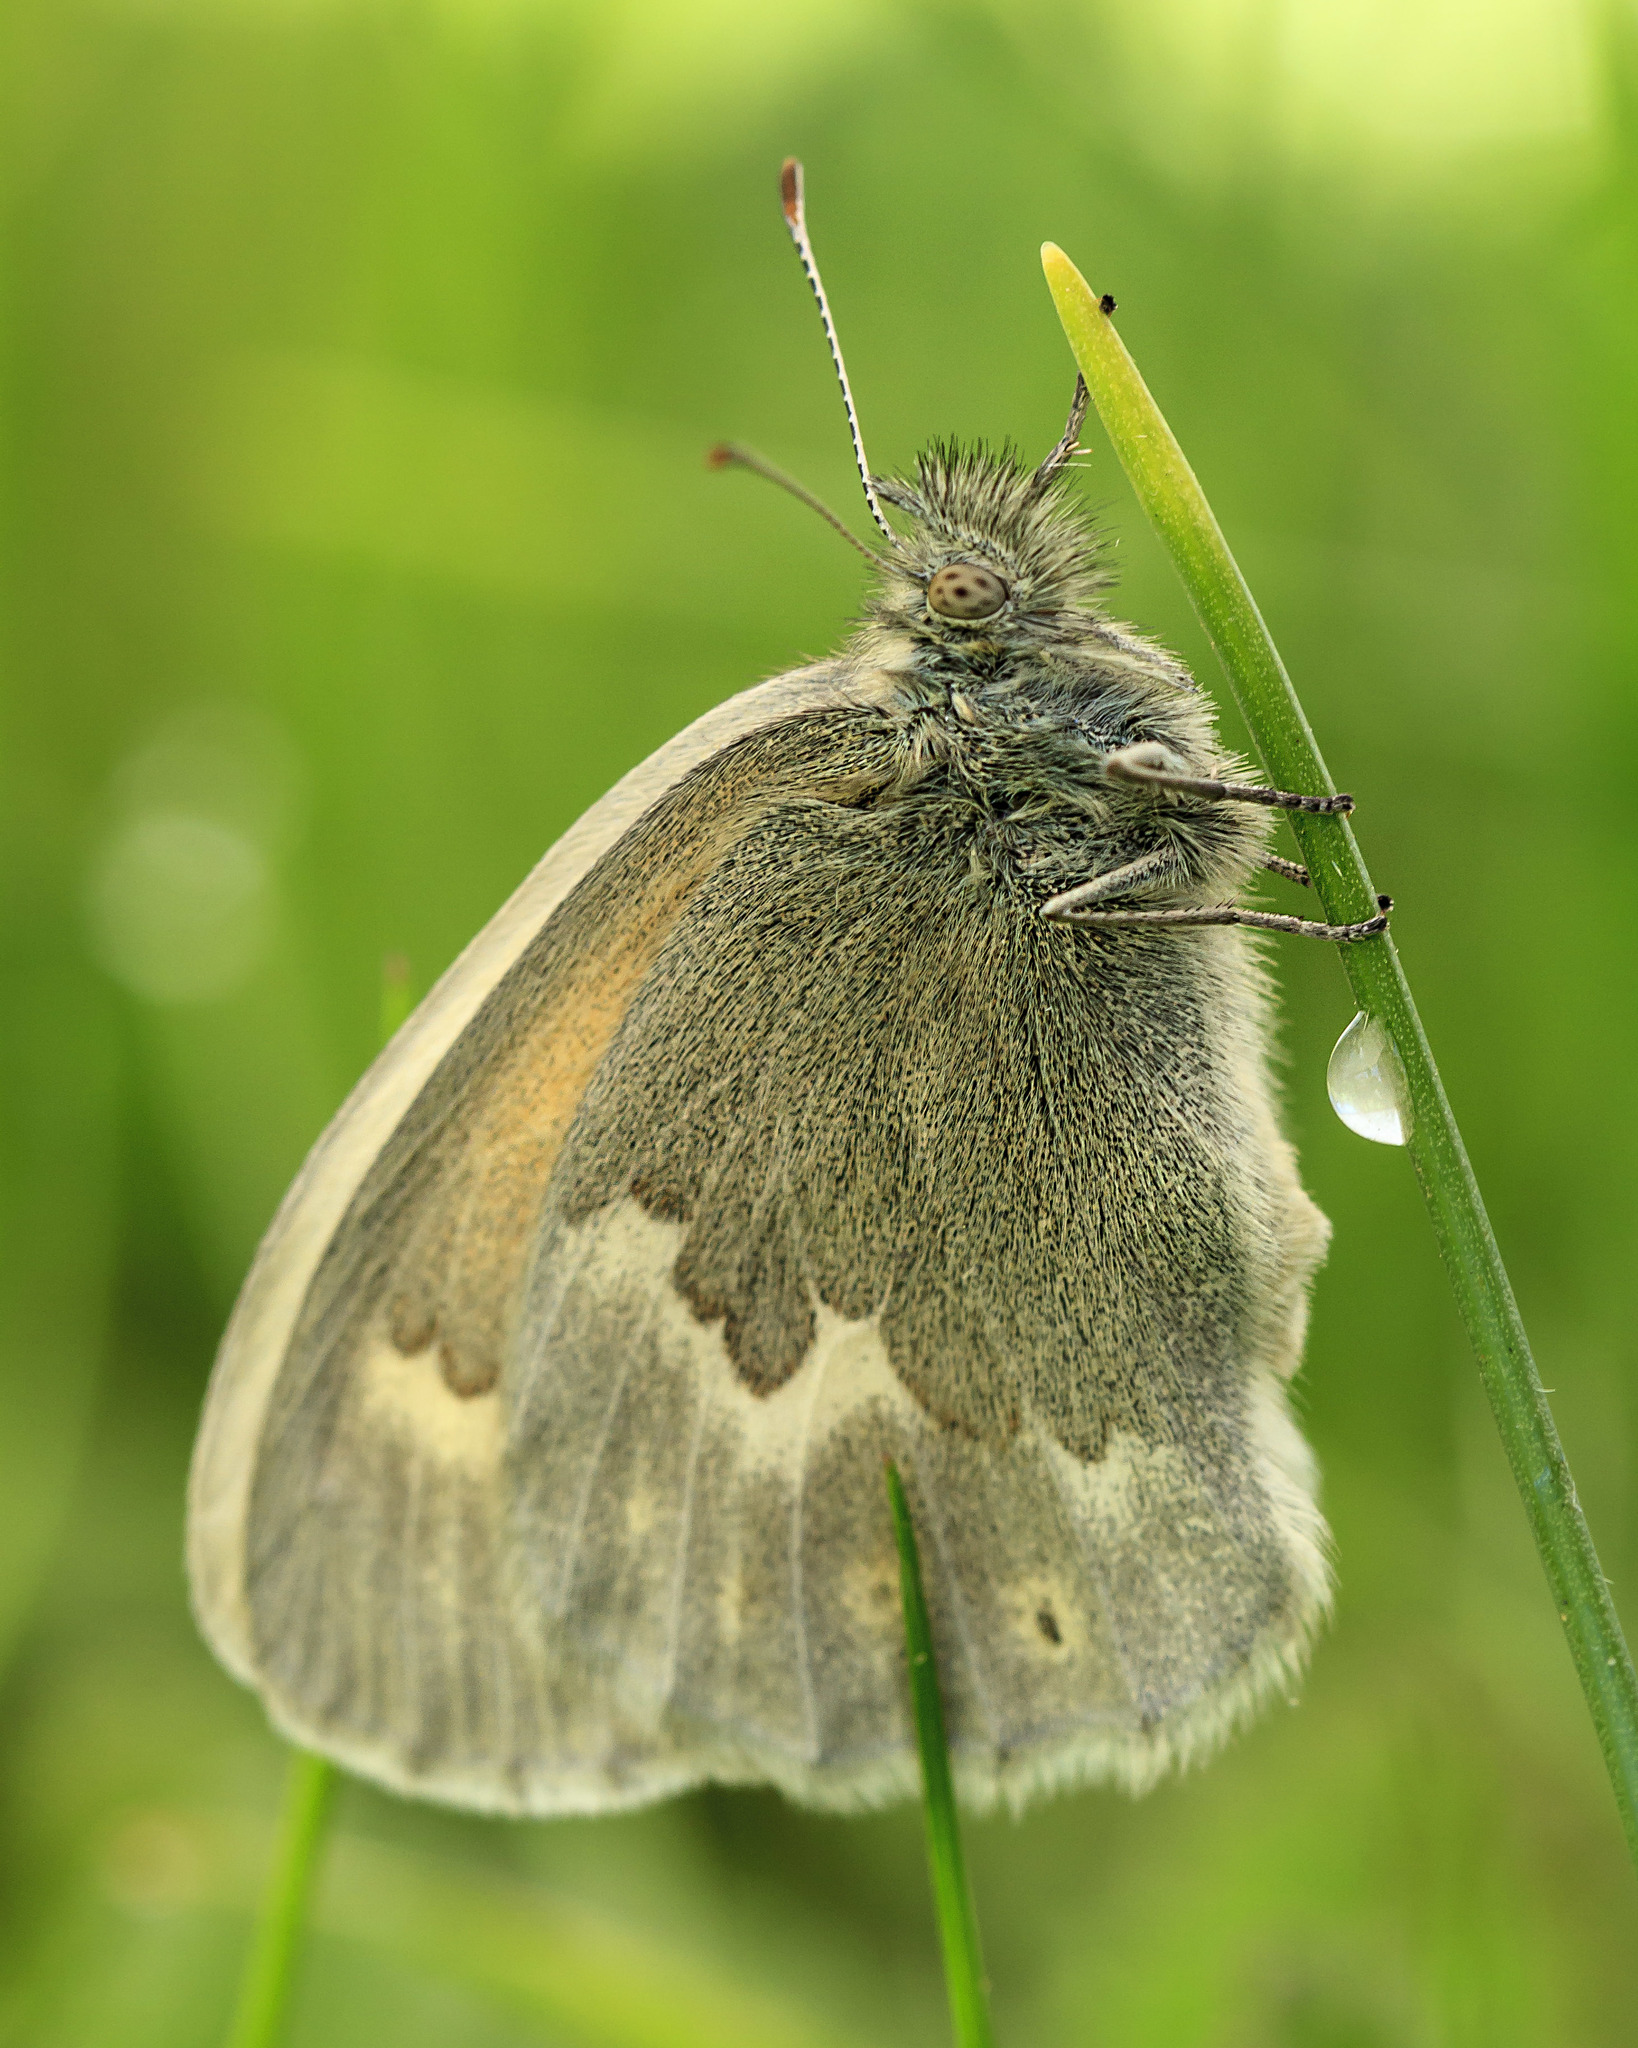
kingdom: Animalia
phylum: Arthropoda
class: Insecta
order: Lepidoptera
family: Nymphalidae
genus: Coenonympha
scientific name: Coenonympha california
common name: Common ringlet
